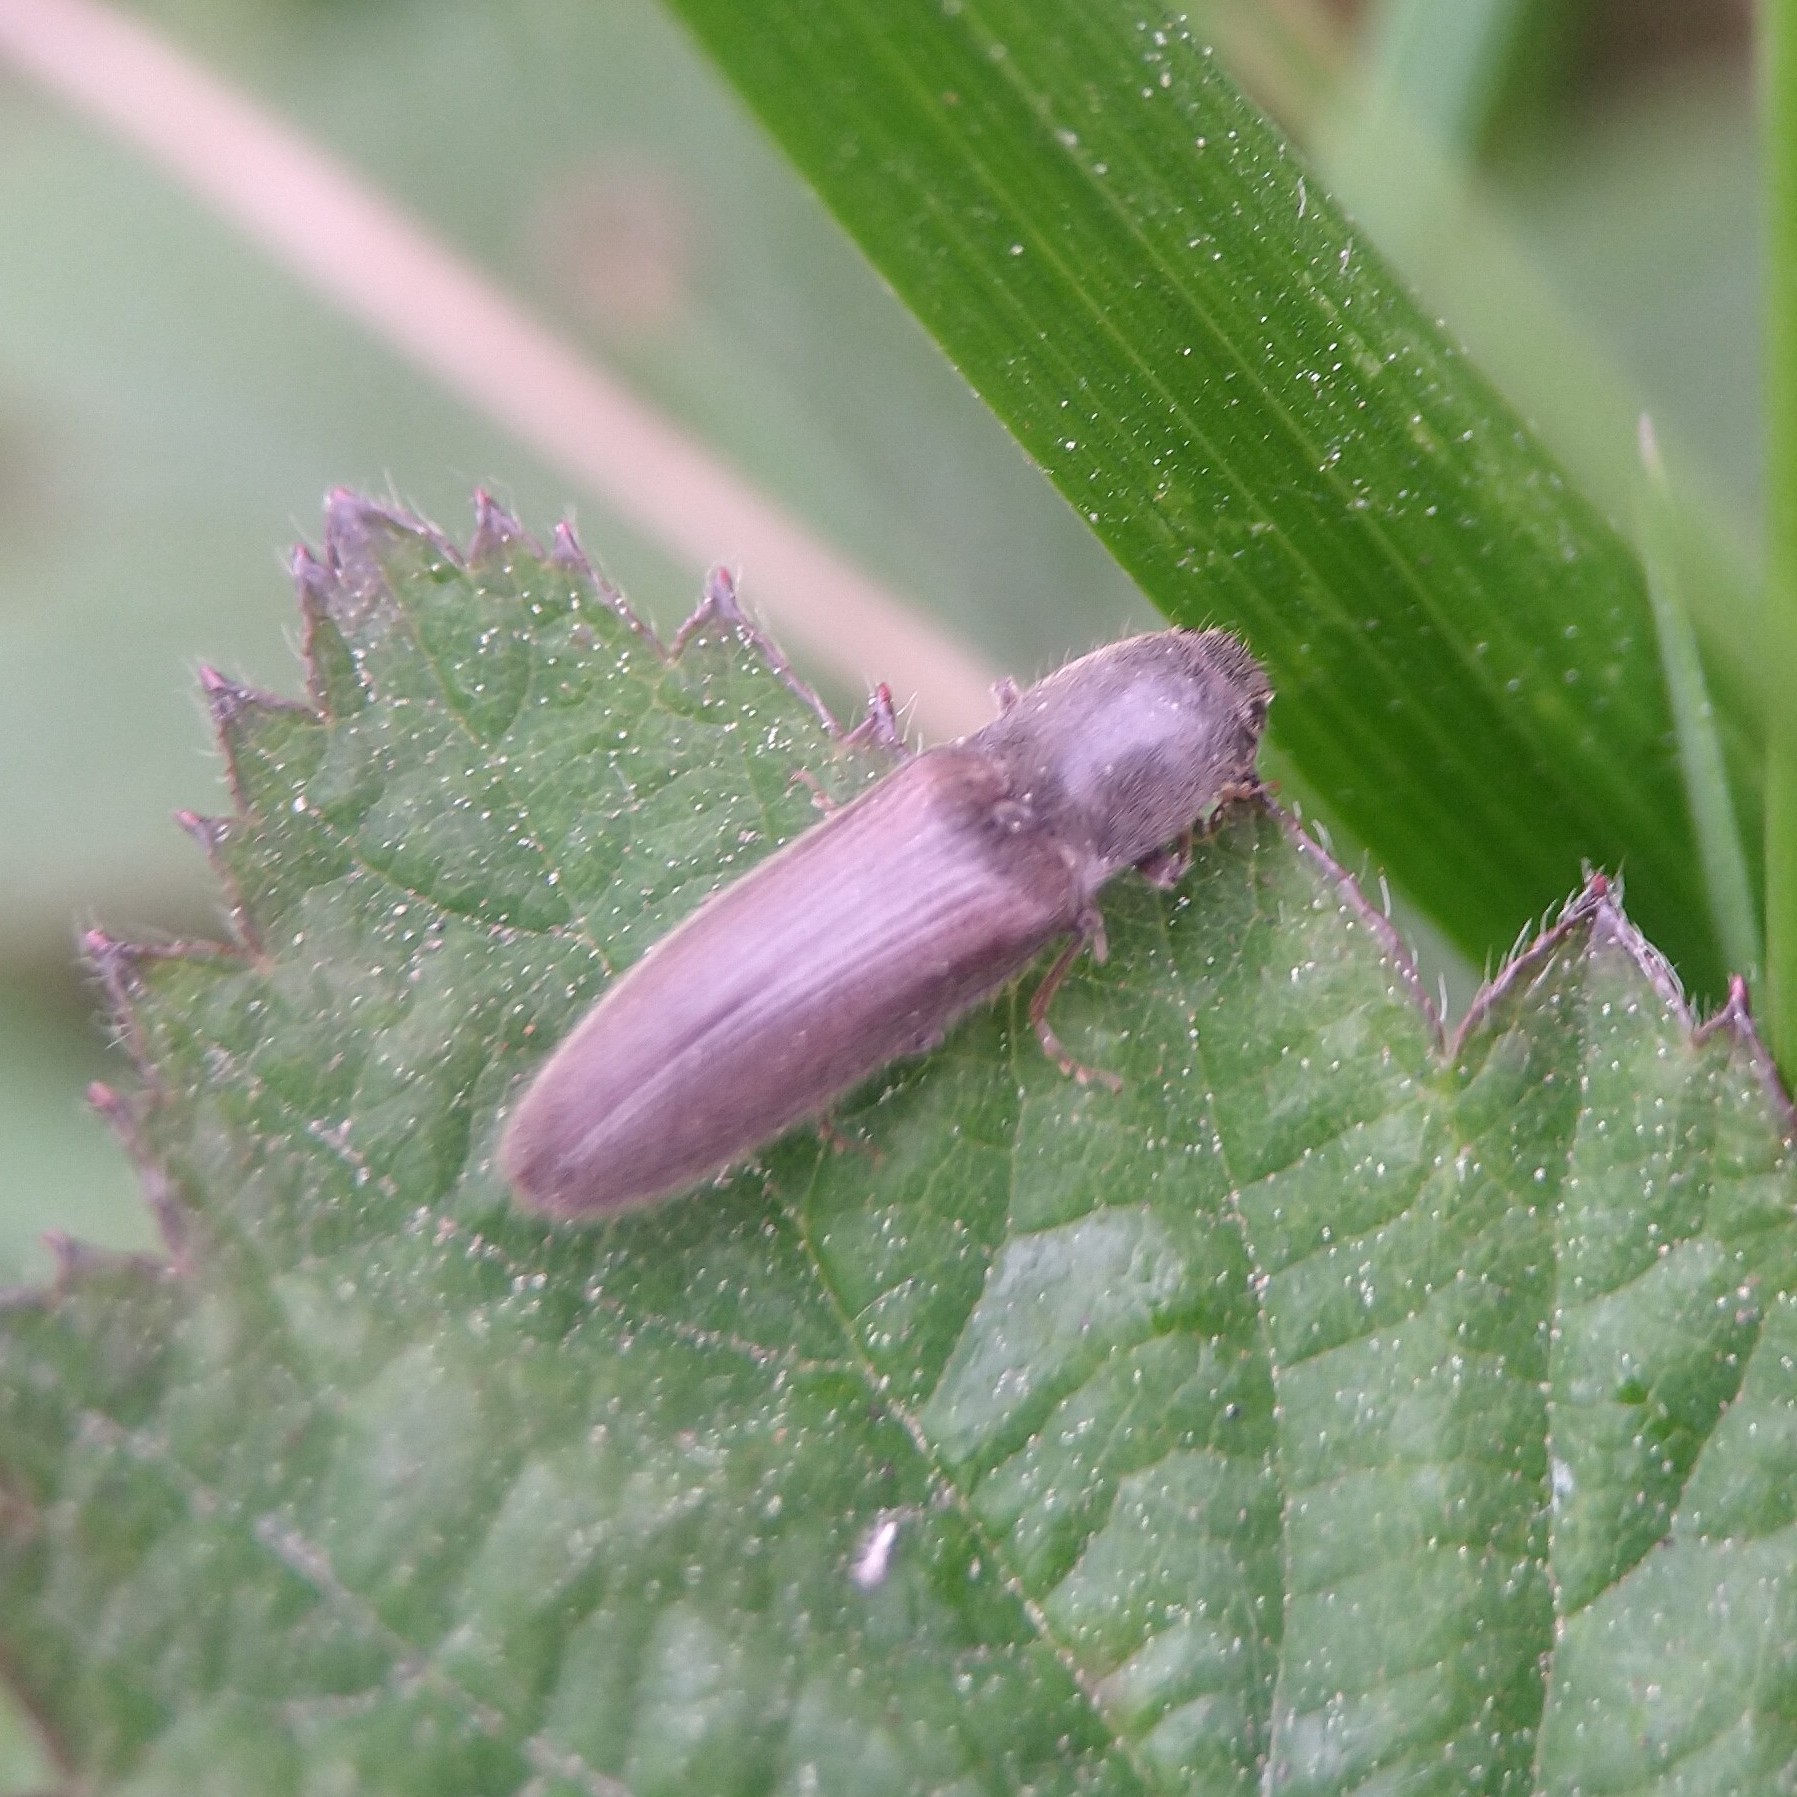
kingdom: Animalia
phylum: Arthropoda
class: Insecta
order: Coleoptera
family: Elateridae
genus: Athous
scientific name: Athous haemorrhoidalis
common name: Red-brown click beetle
